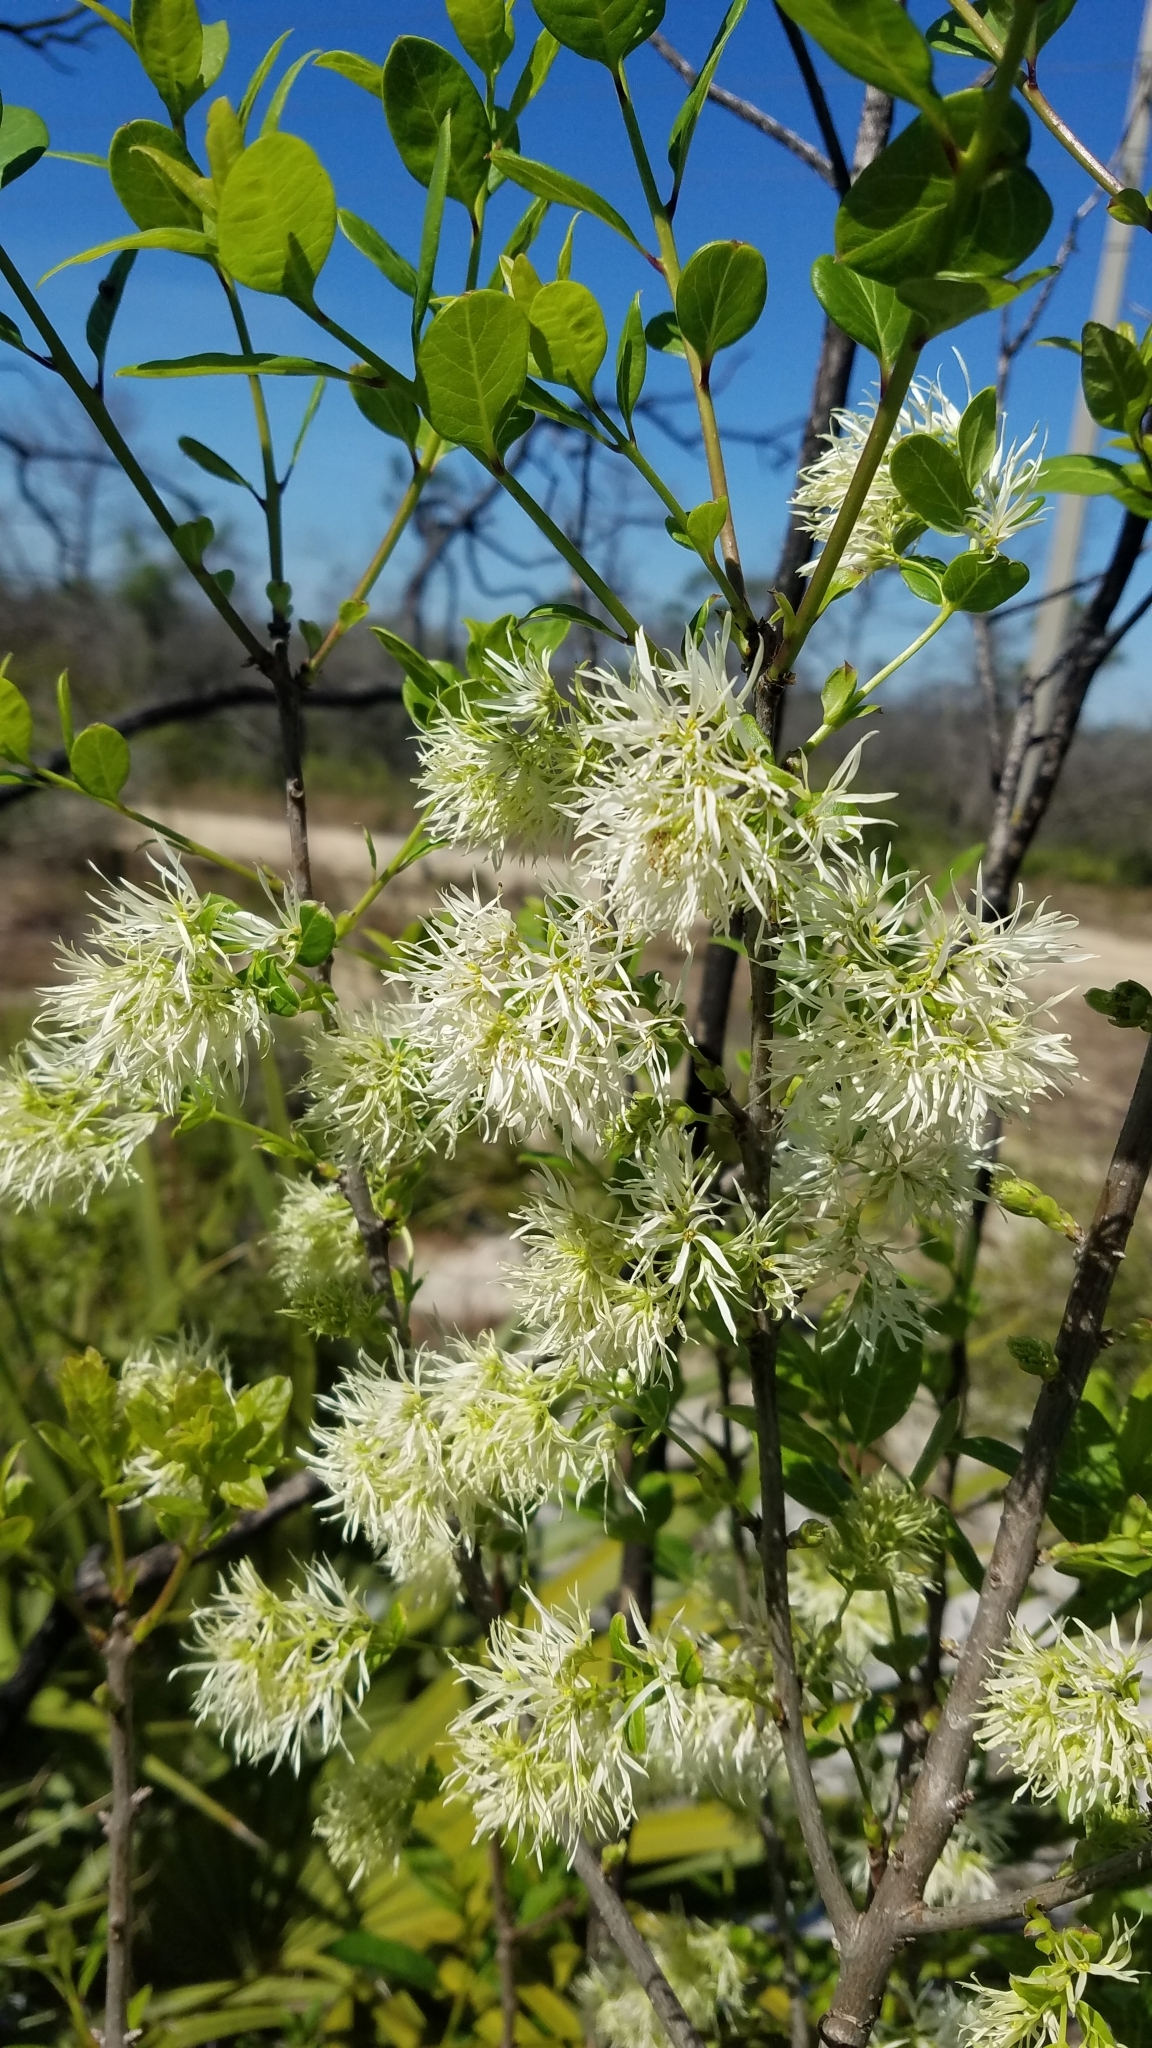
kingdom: Plantae
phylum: Tracheophyta
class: Magnoliopsida
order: Lamiales
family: Oleaceae
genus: Chionanthus
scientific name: Chionanthus pygmaeus
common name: Pygmy fringetree
